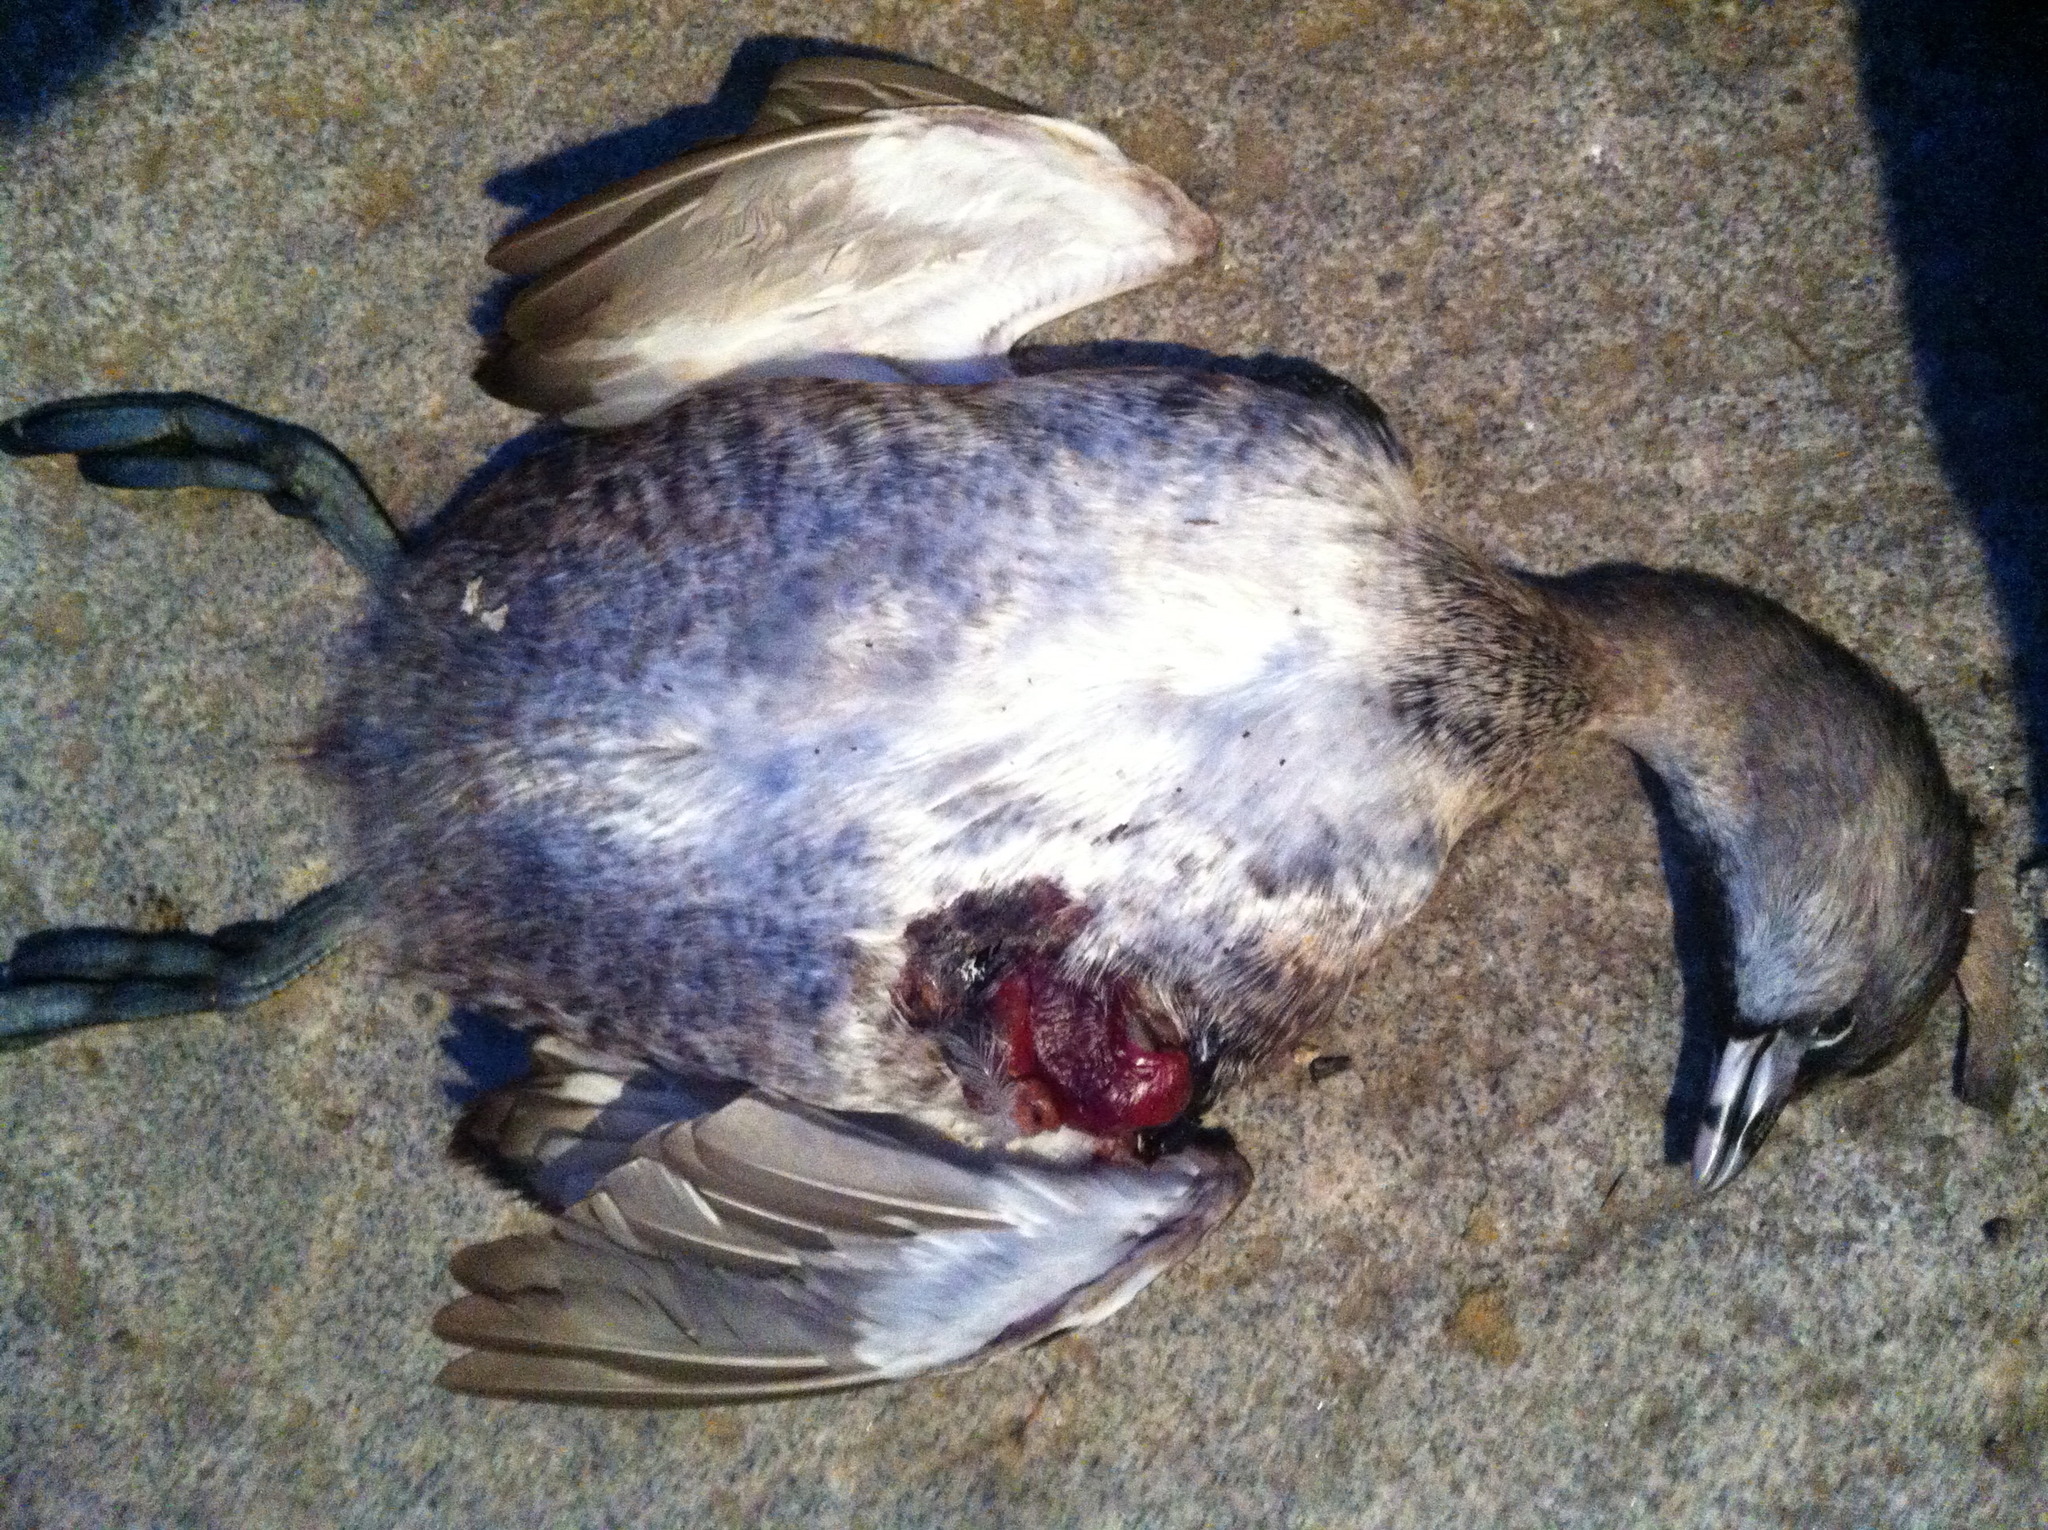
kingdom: Animalia
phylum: Chordata
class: Aves
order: Podicipediformes
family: Podicipedidae
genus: Podilymbus
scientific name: Podilymbus podiceps
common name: Pied-billed grebe
